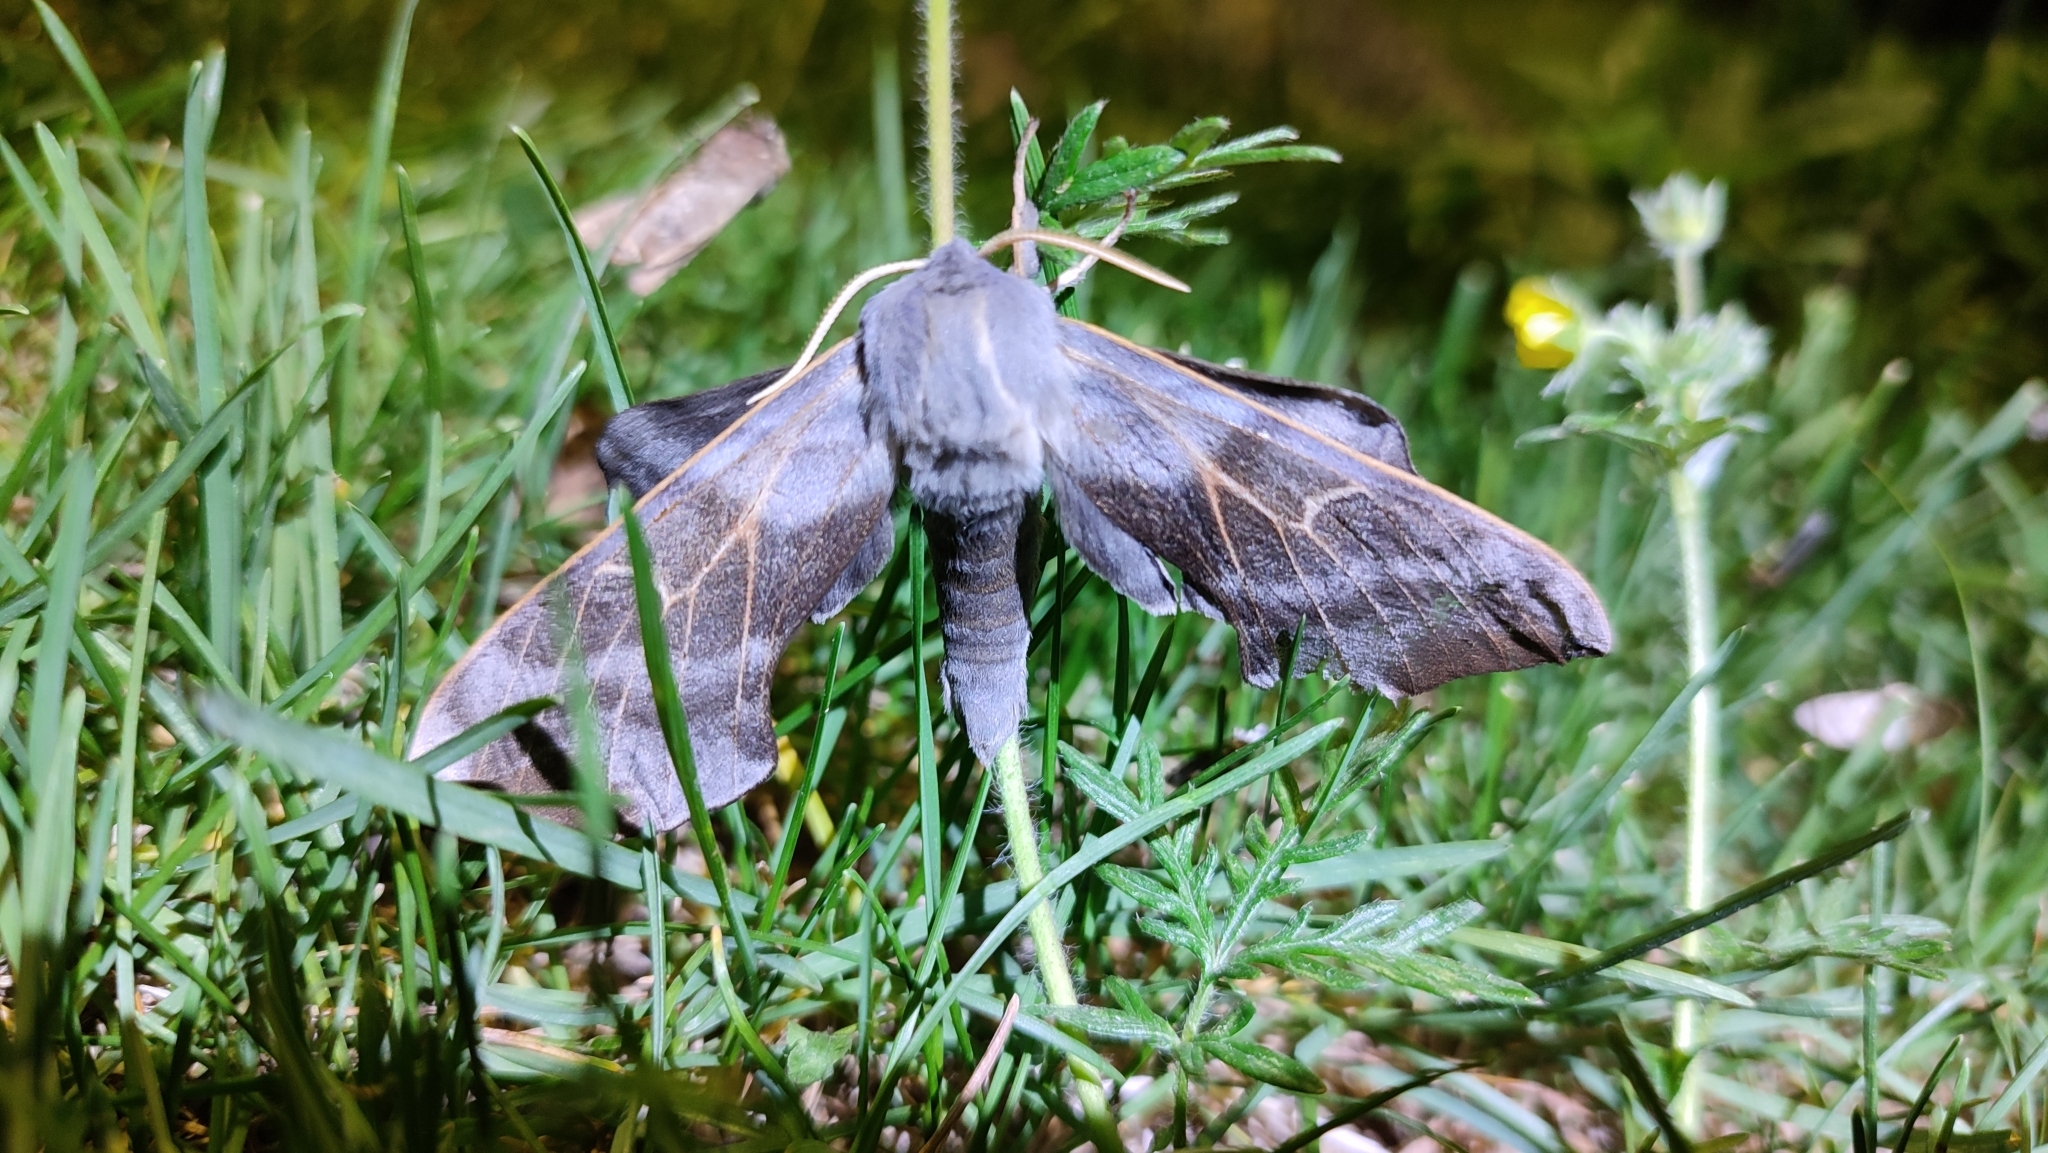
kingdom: Animalia
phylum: Arthropoda
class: Insecta
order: Lepidoptera
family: Sphingidae
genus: Laothoe
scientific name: Laothoe amurensis
